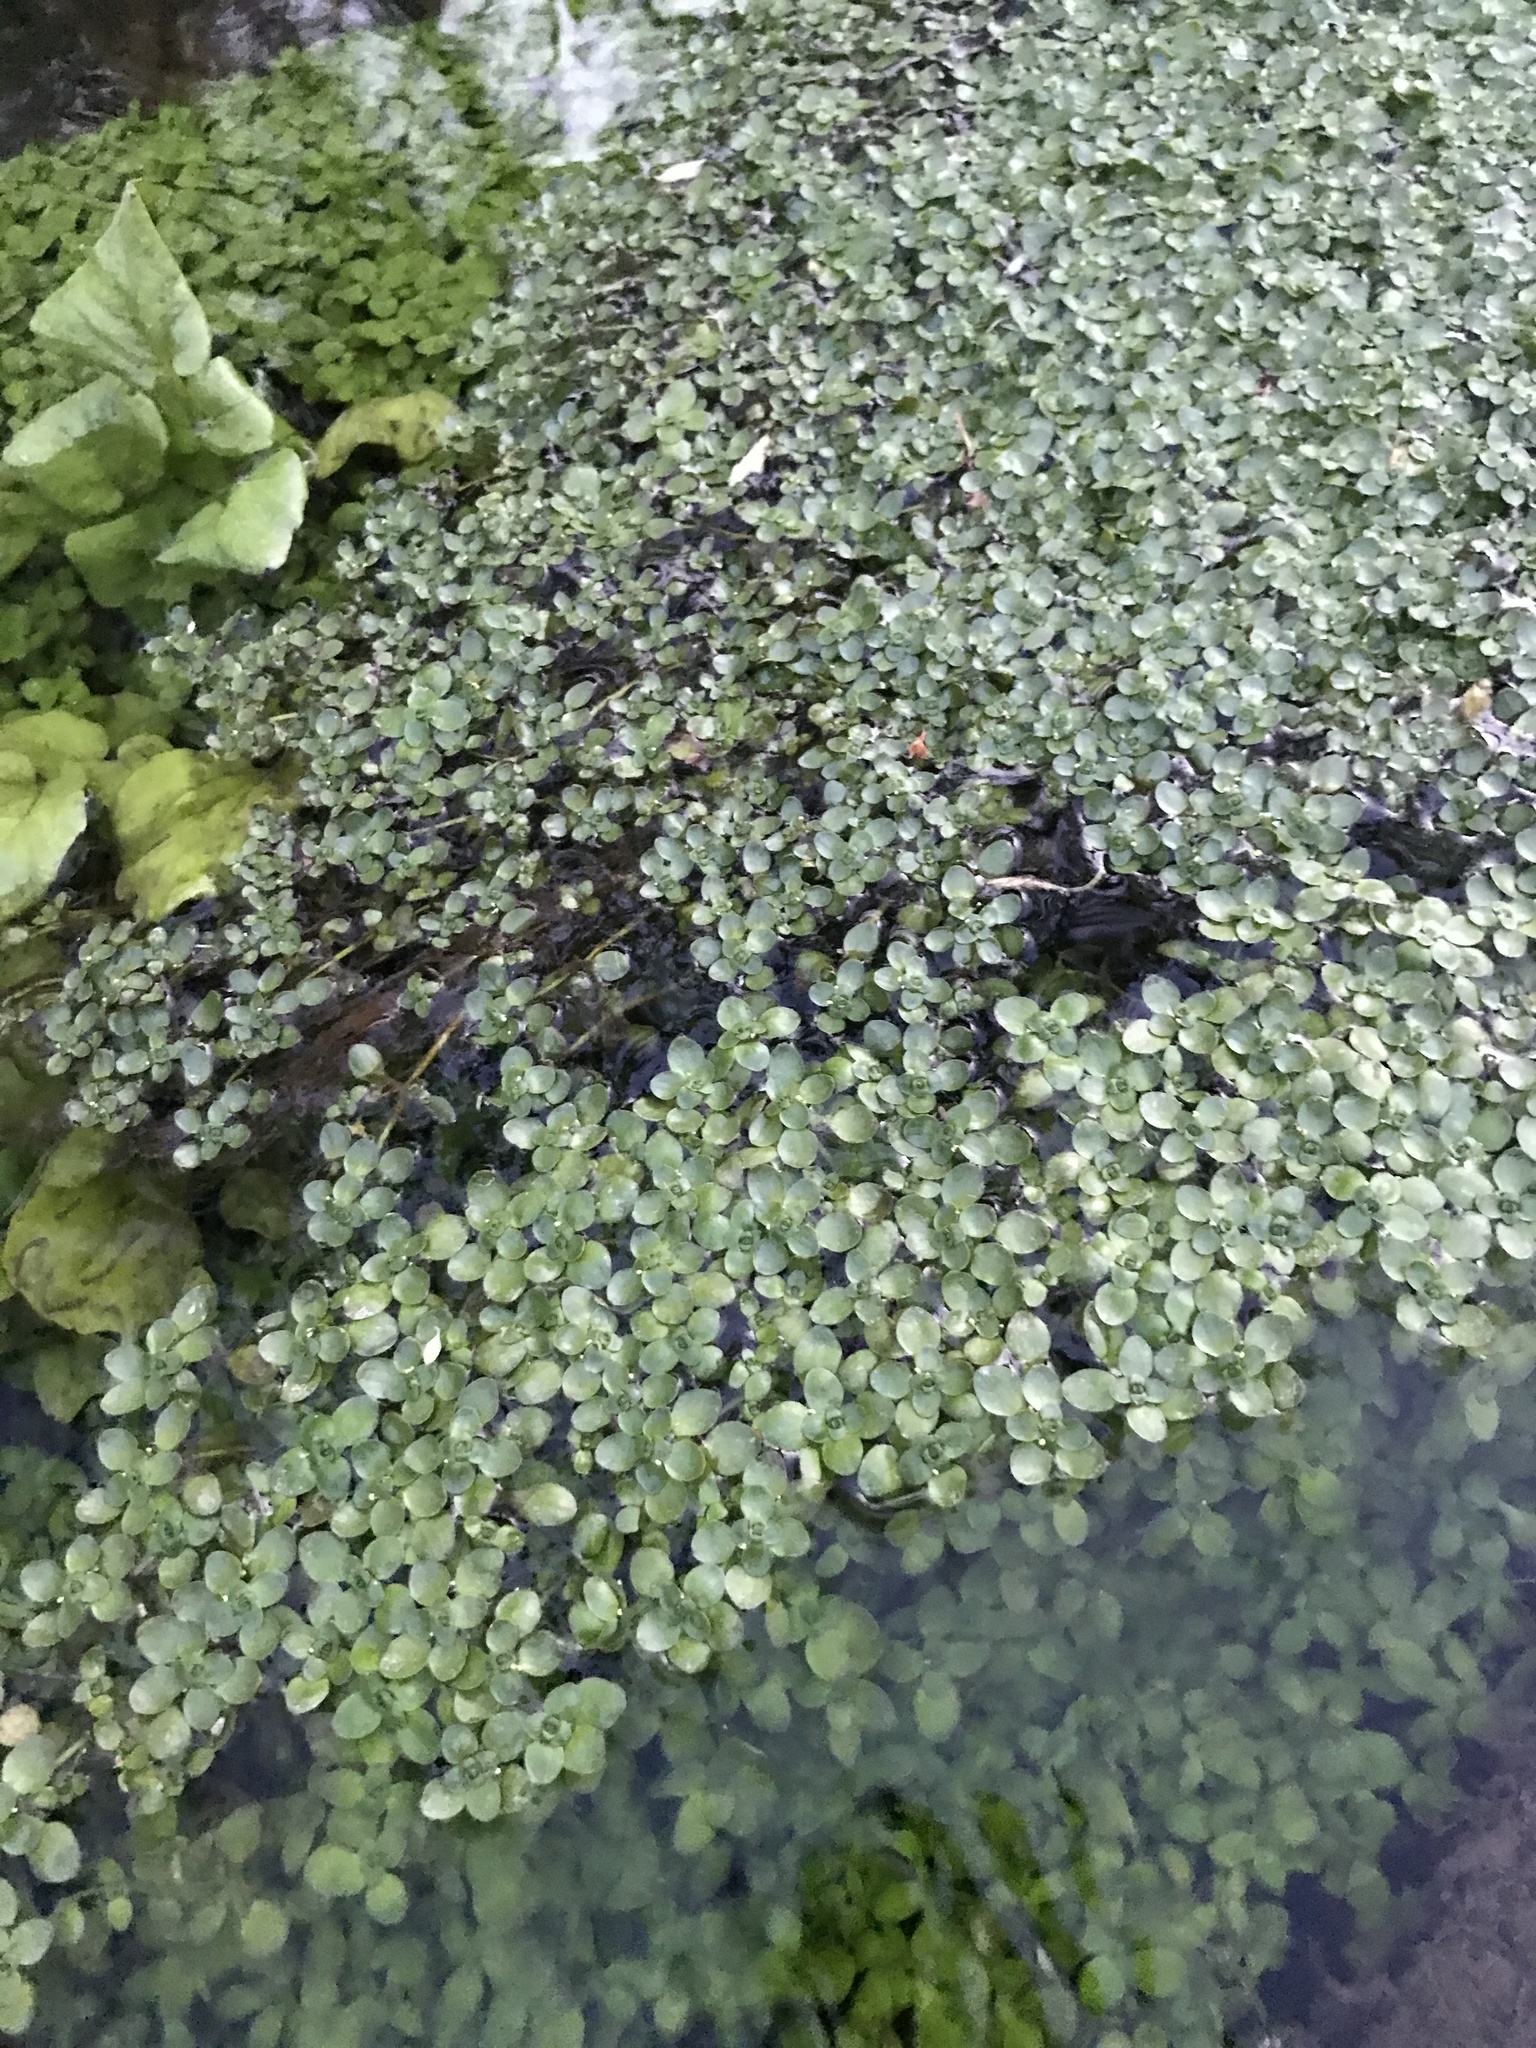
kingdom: Plantae
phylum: Tracheophyta
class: Magnoliopsida
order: Lamiales
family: Plantaginaceae
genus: Callitriche
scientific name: Callitriche stagnalis
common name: Common water-starwort
